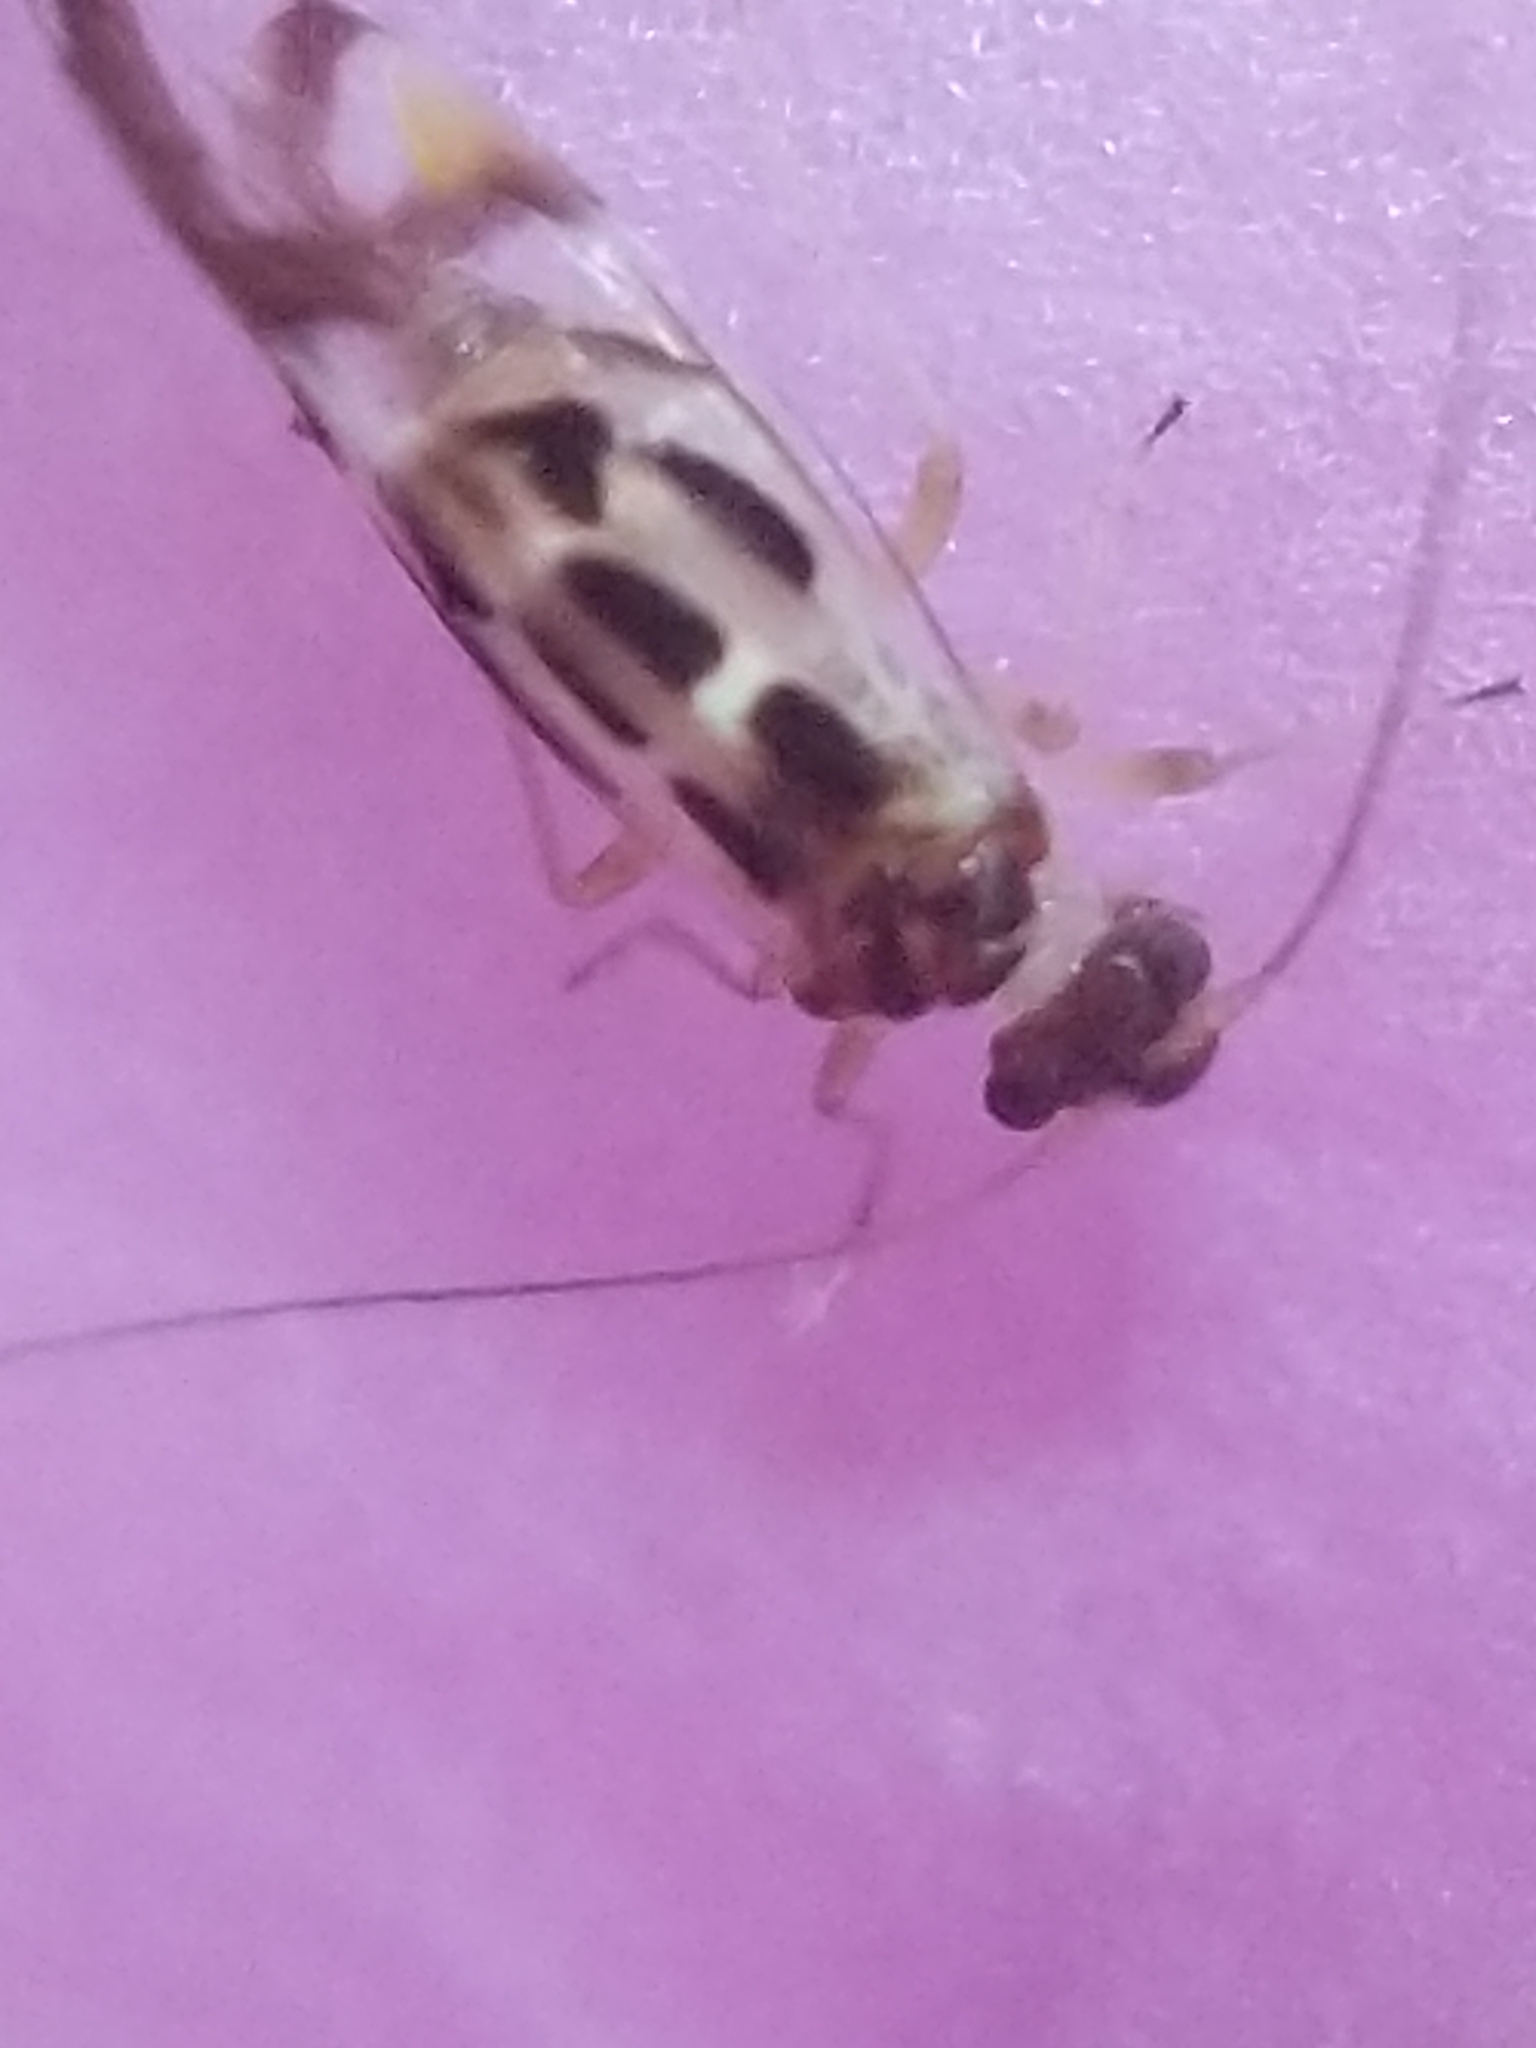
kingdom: Animalia
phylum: Arthropoda
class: Insecta
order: Psocodea
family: Stenopsocidae
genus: Graphopsocus
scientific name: Graphopsocus cruciatus
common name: Lizard bark louse
